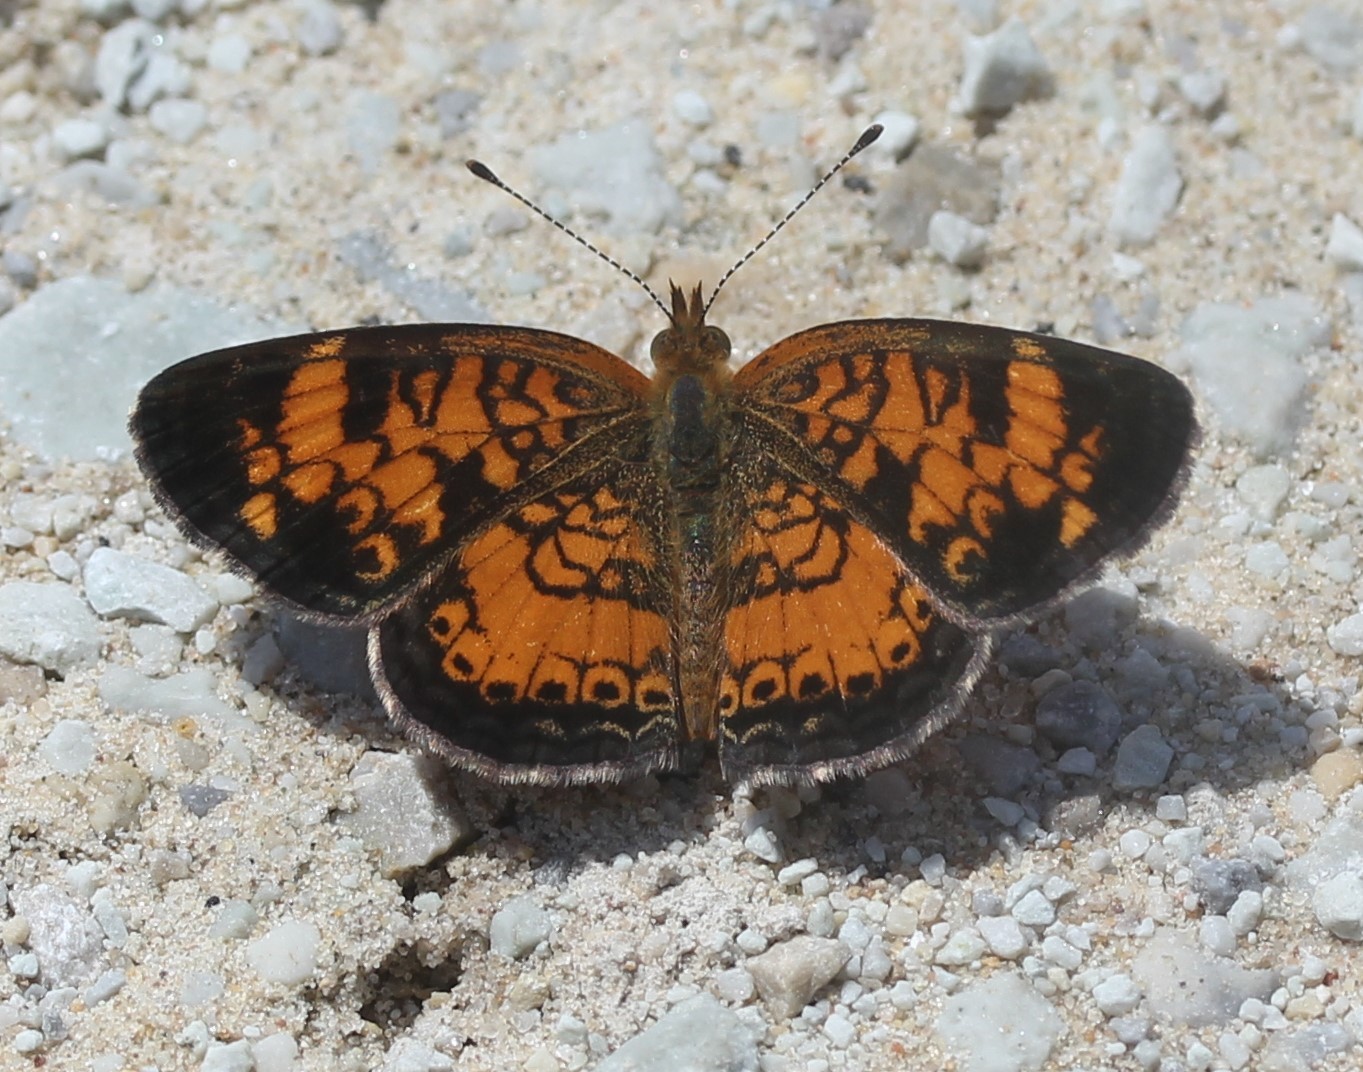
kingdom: Animalia
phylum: Arthropoda
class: Insecta
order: Lepidoptera
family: Nymphalidae
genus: Phyciodes
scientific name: Phyciodes tharos
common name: Pearl crescent
